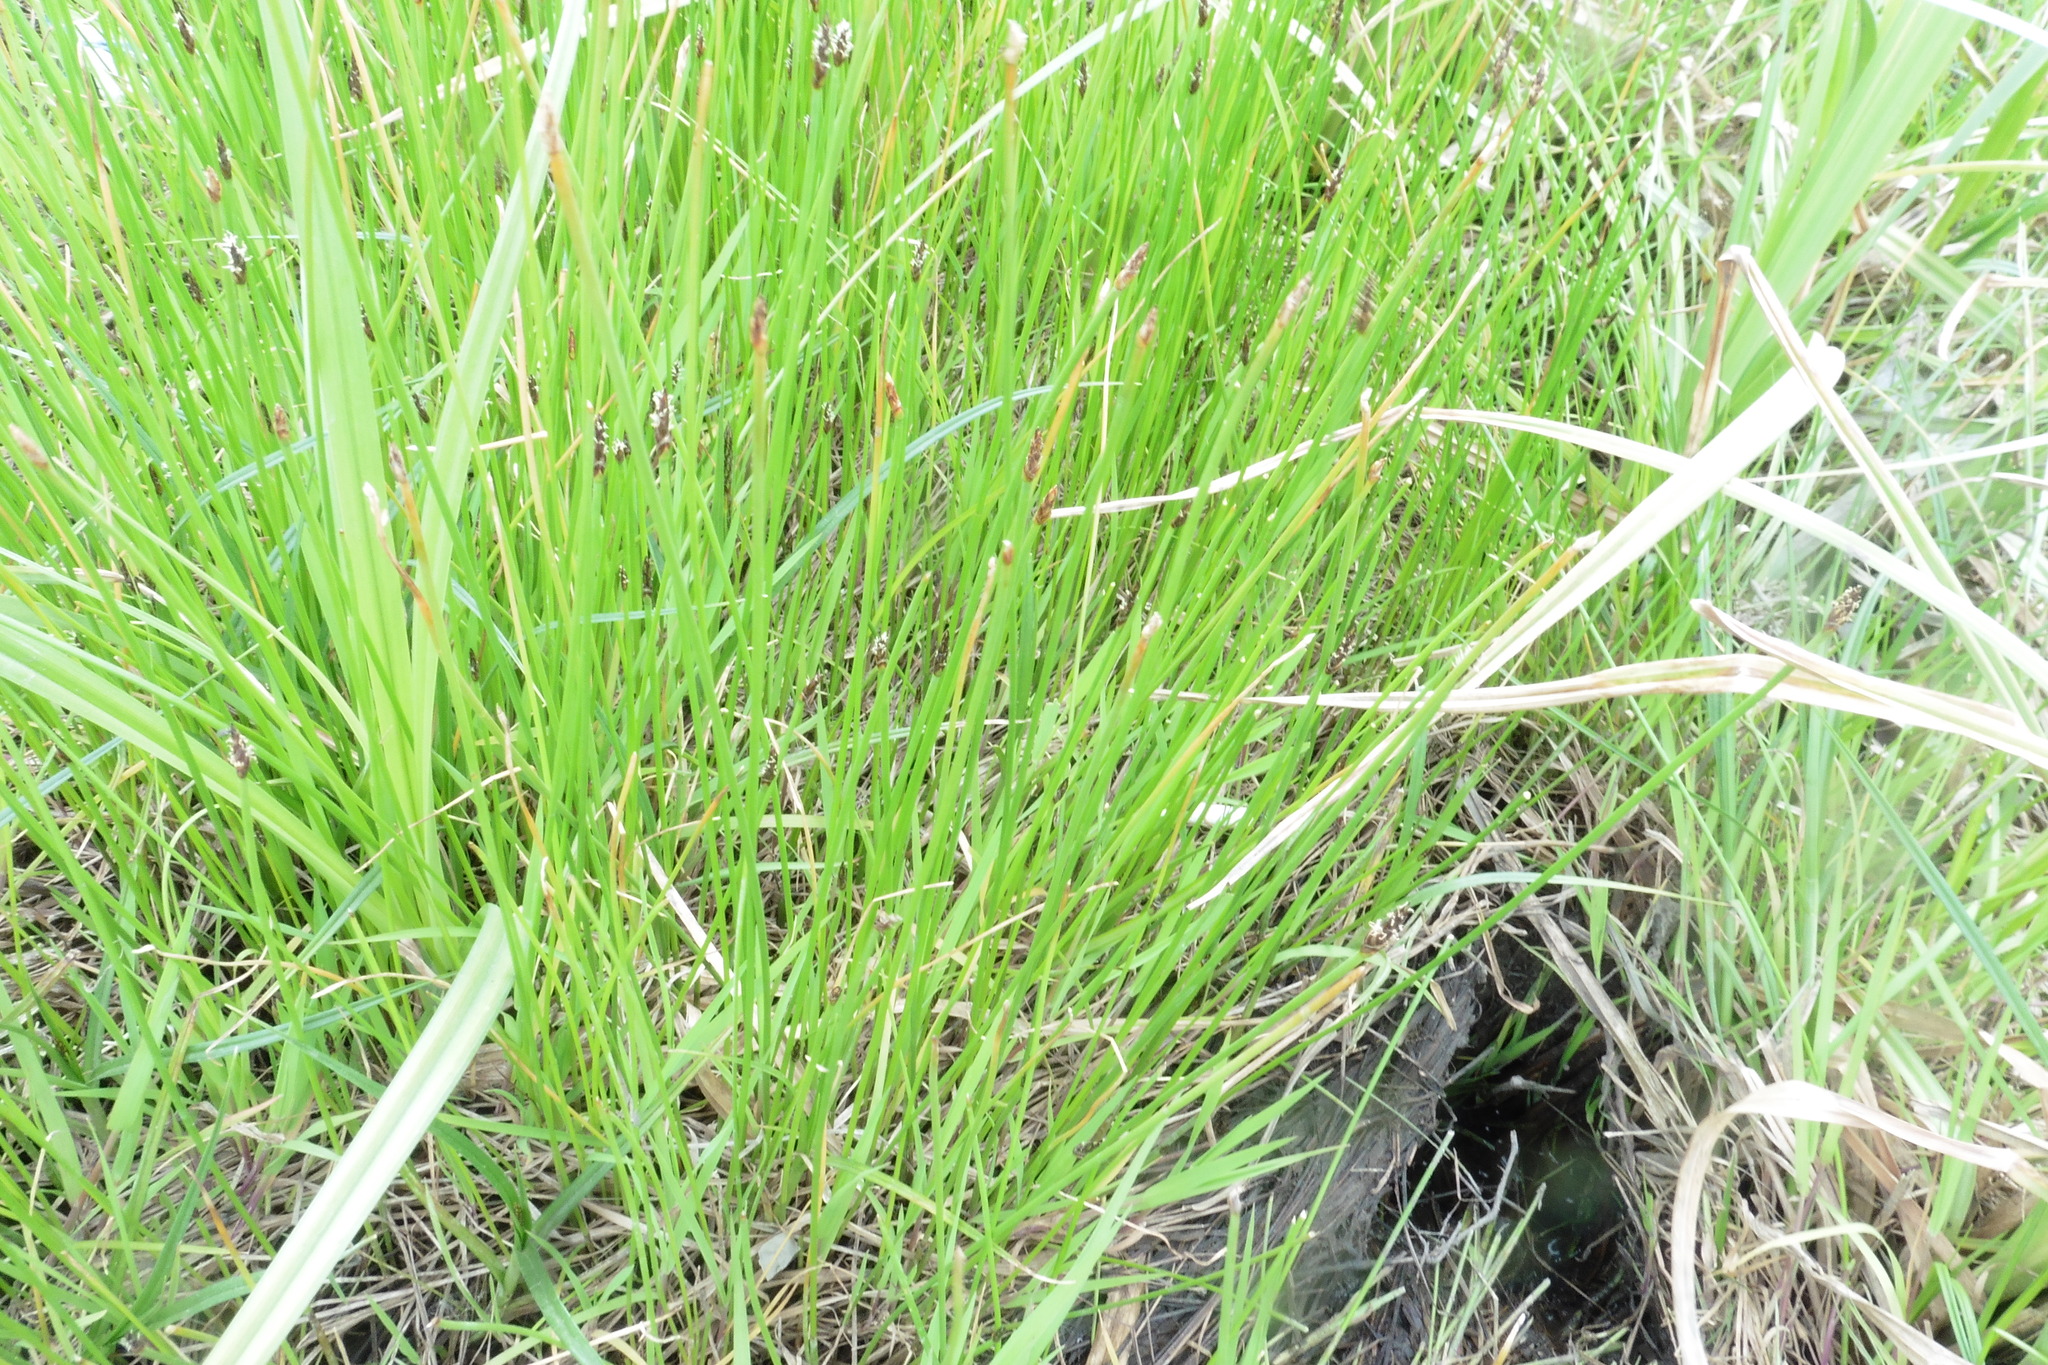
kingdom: Plantae
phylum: Tracheophyta
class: Liliopsida
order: Poales
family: Cyperaceae
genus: Eleocharis
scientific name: Eleocharis palustris
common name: Common spike-rush
